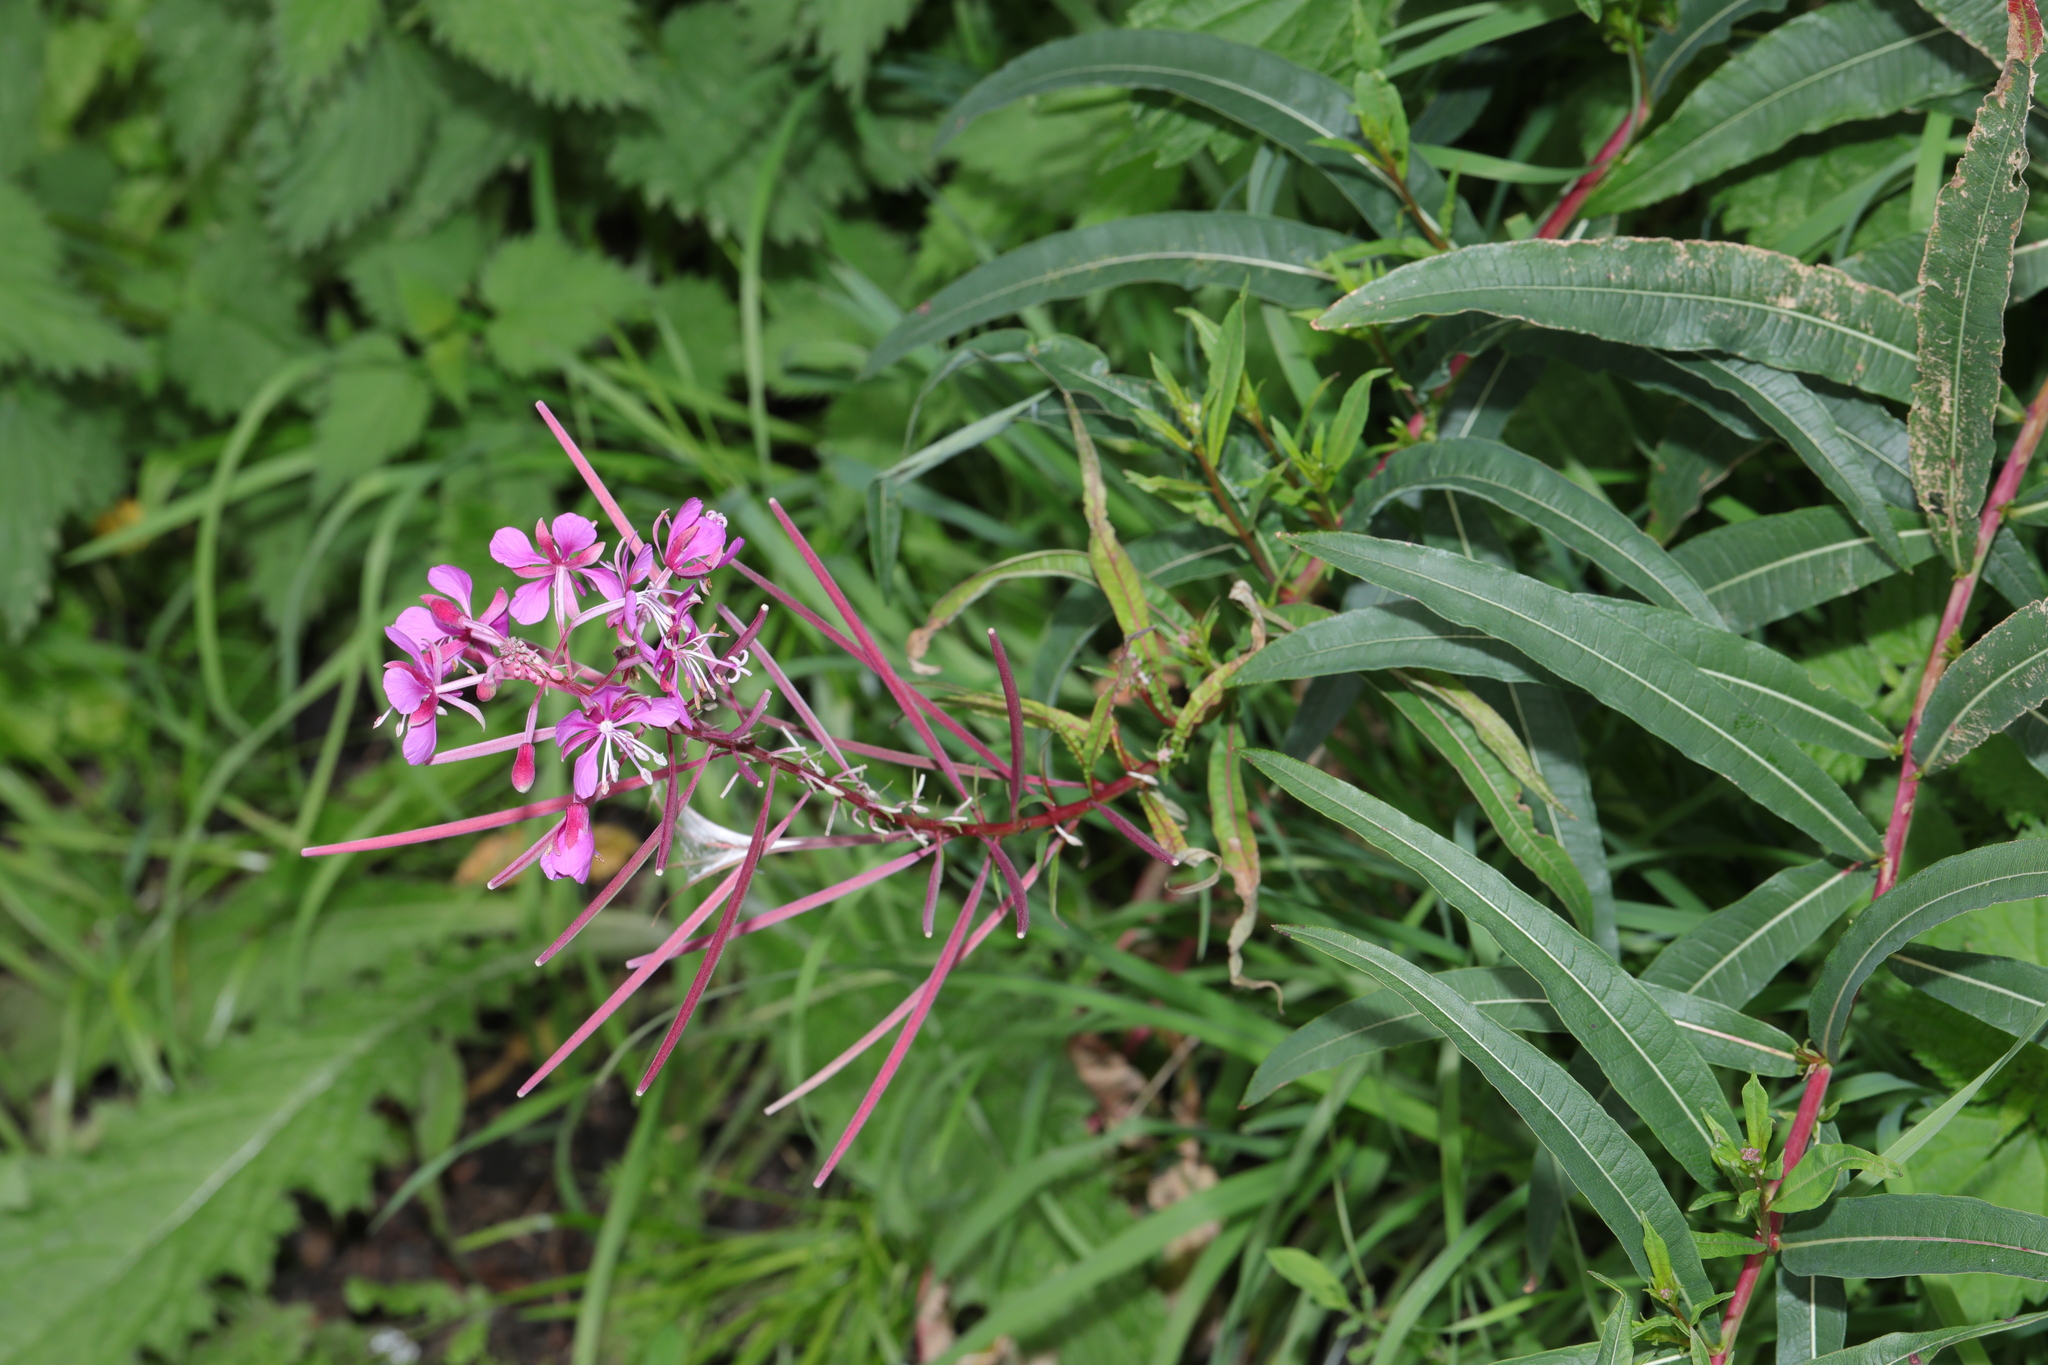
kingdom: Plantae
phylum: Tracheophyta
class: Magnoliopsida
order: Myrtales
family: Onagraceae
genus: Chamaenerion
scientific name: Chamaenerion angustifolium
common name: Fireweed
